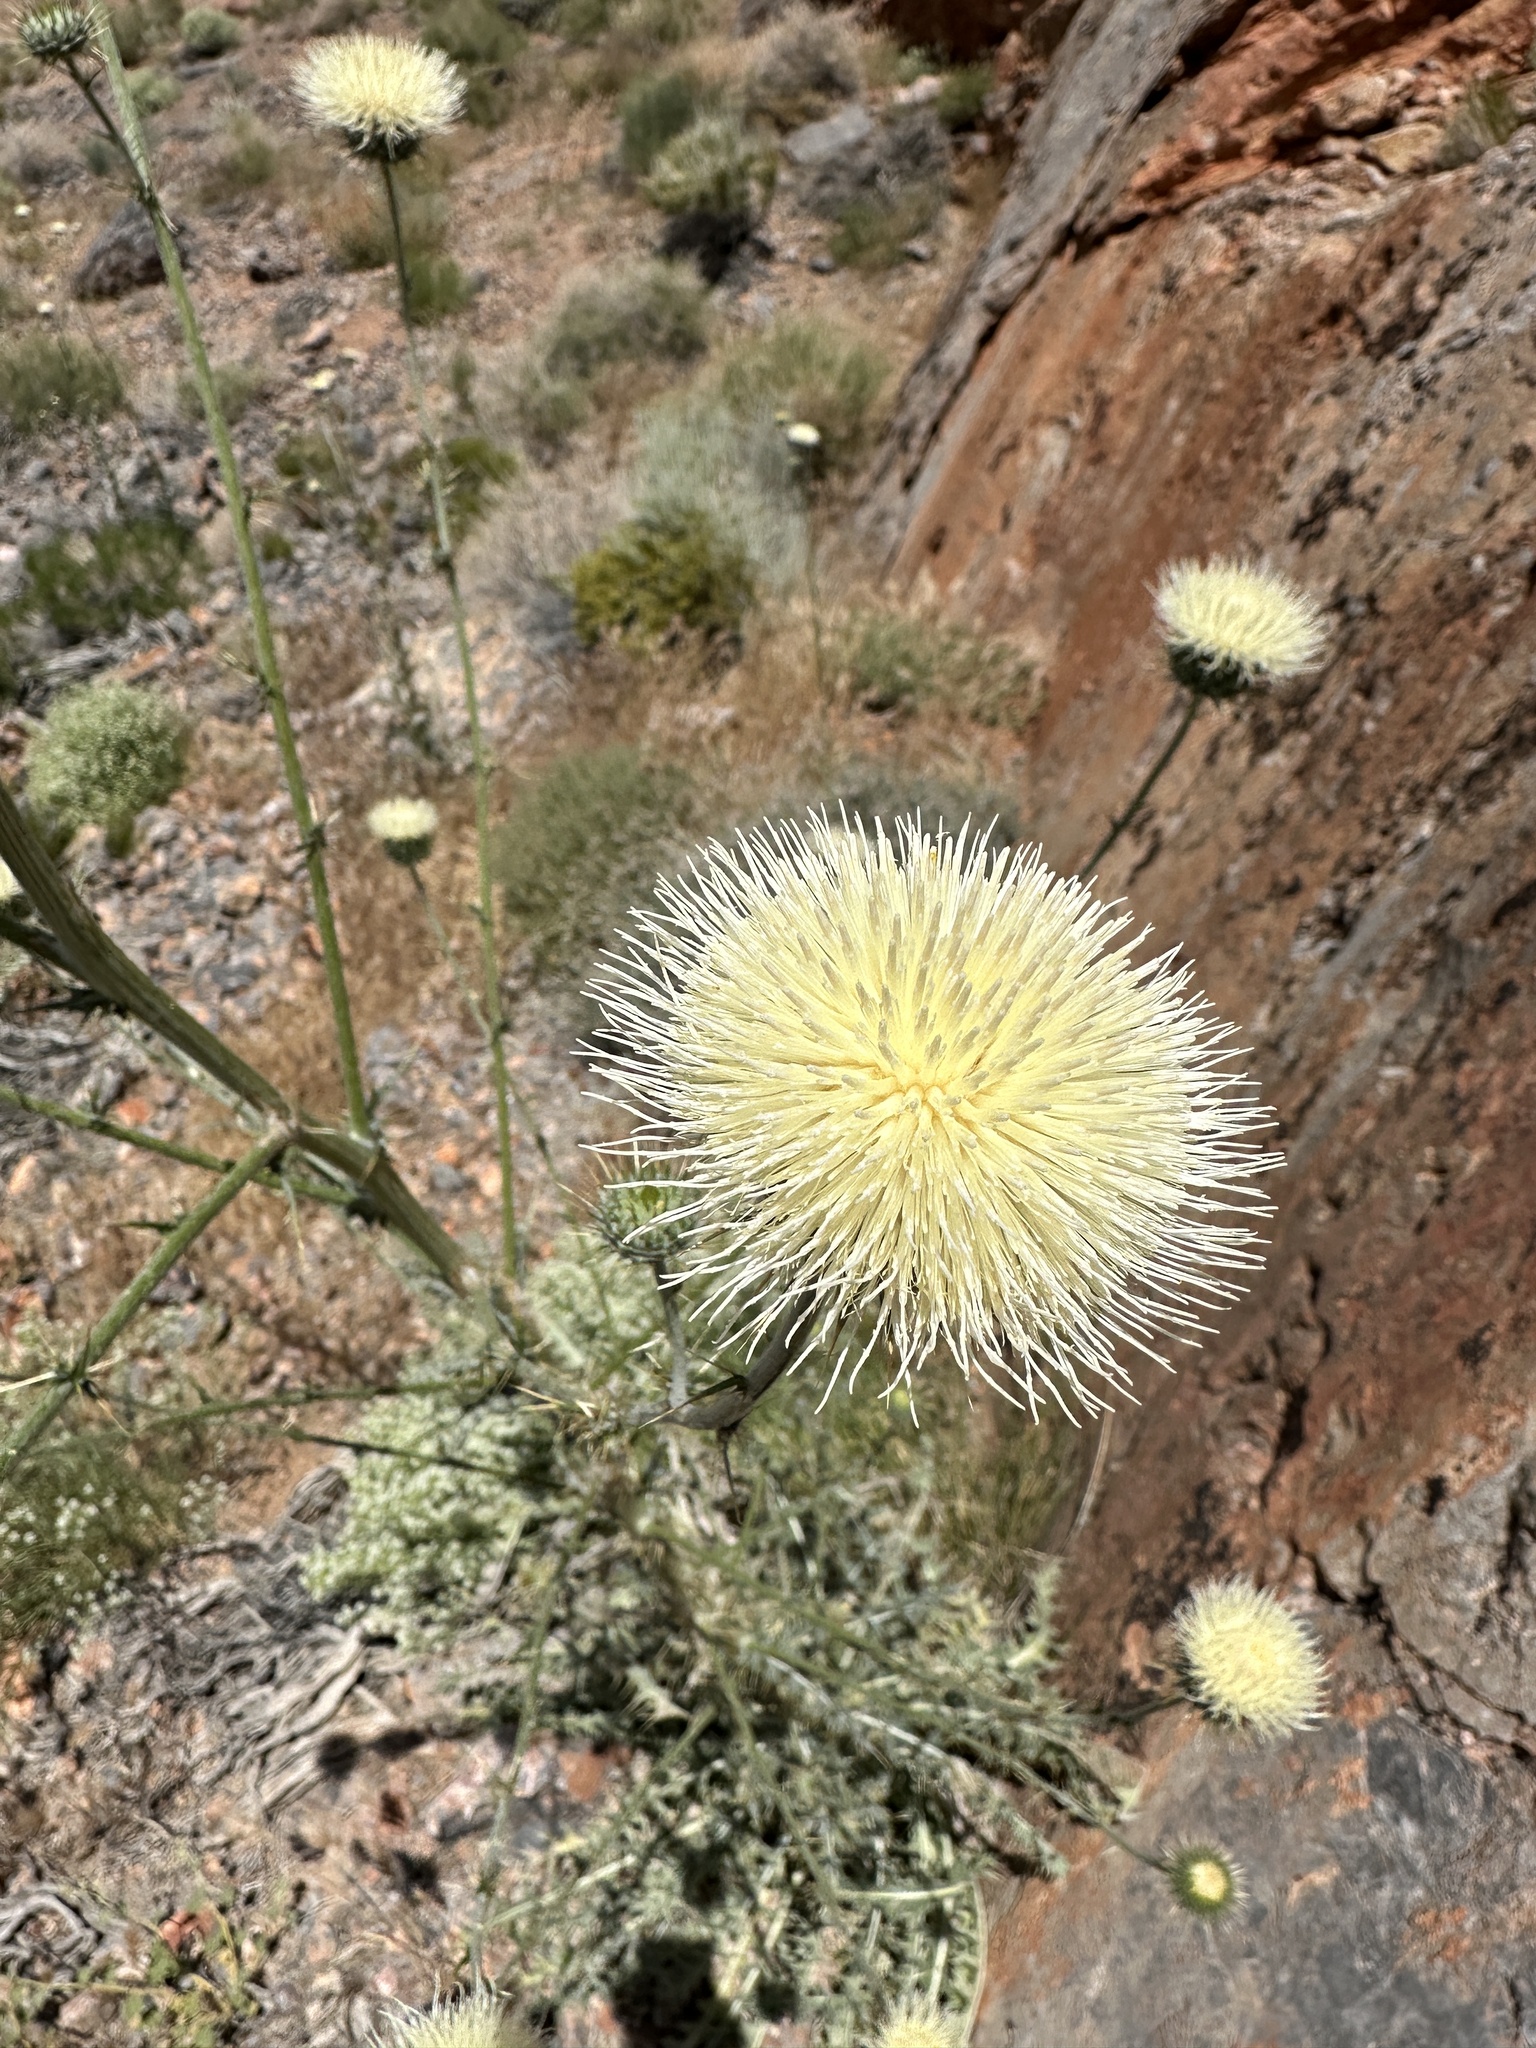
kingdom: Plantae
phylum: Tracheophyta
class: Magnoliopsida
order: Asterales
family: Asteraceae
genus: Cirsium
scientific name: Cirsium neomexicanum
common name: New mexico thistle
